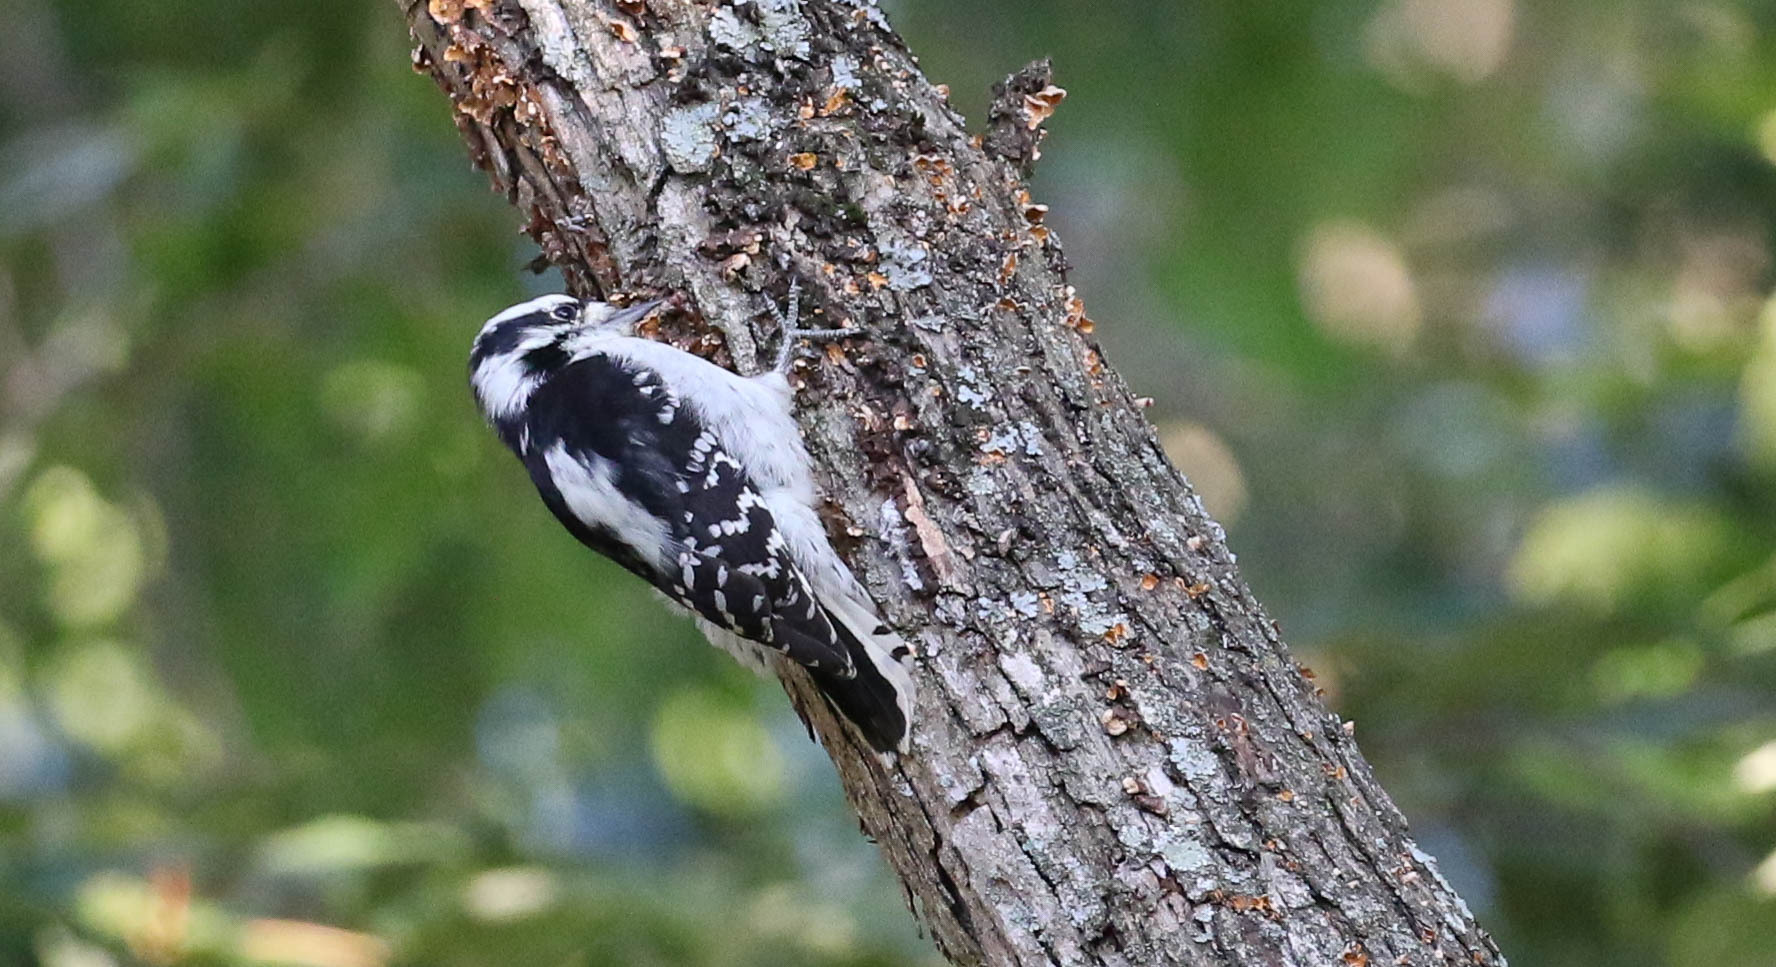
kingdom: Animalia
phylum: Chordata
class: Aves
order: Piciformes
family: Picidae
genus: Dryobates
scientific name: Dryobates pubescens
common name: Downy woodpecker
